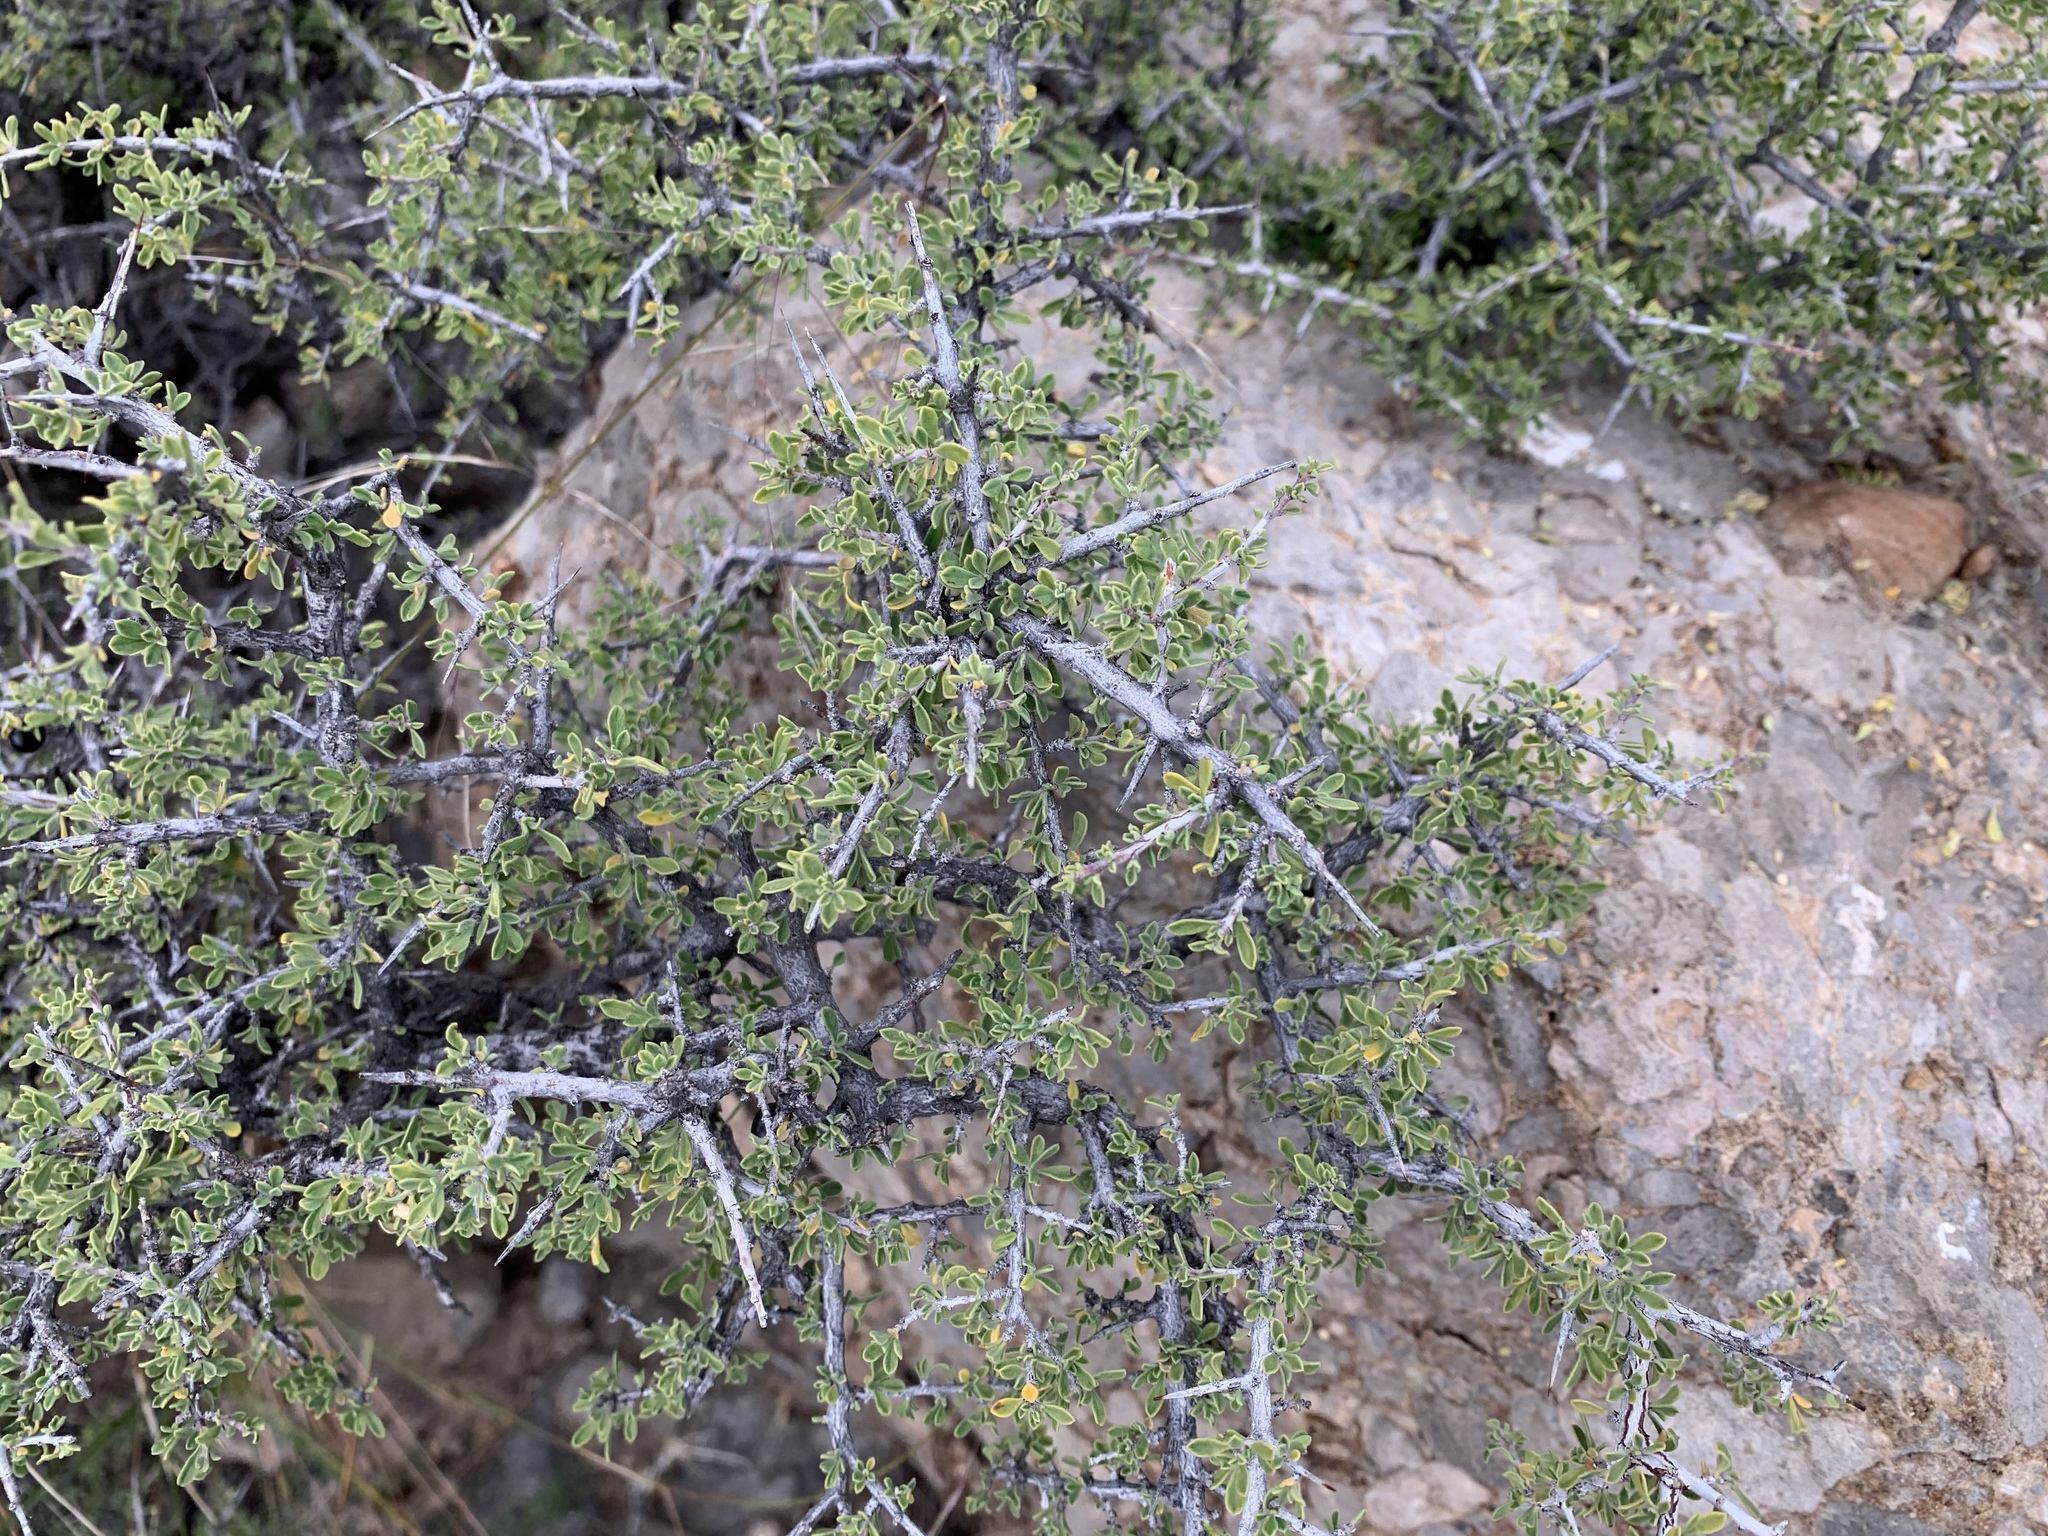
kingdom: Plantae
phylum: Tracheophyta
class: Magnoliopsida
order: Rosales
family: Rhamnaceae
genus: Condalia
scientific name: Condalia warnockii
